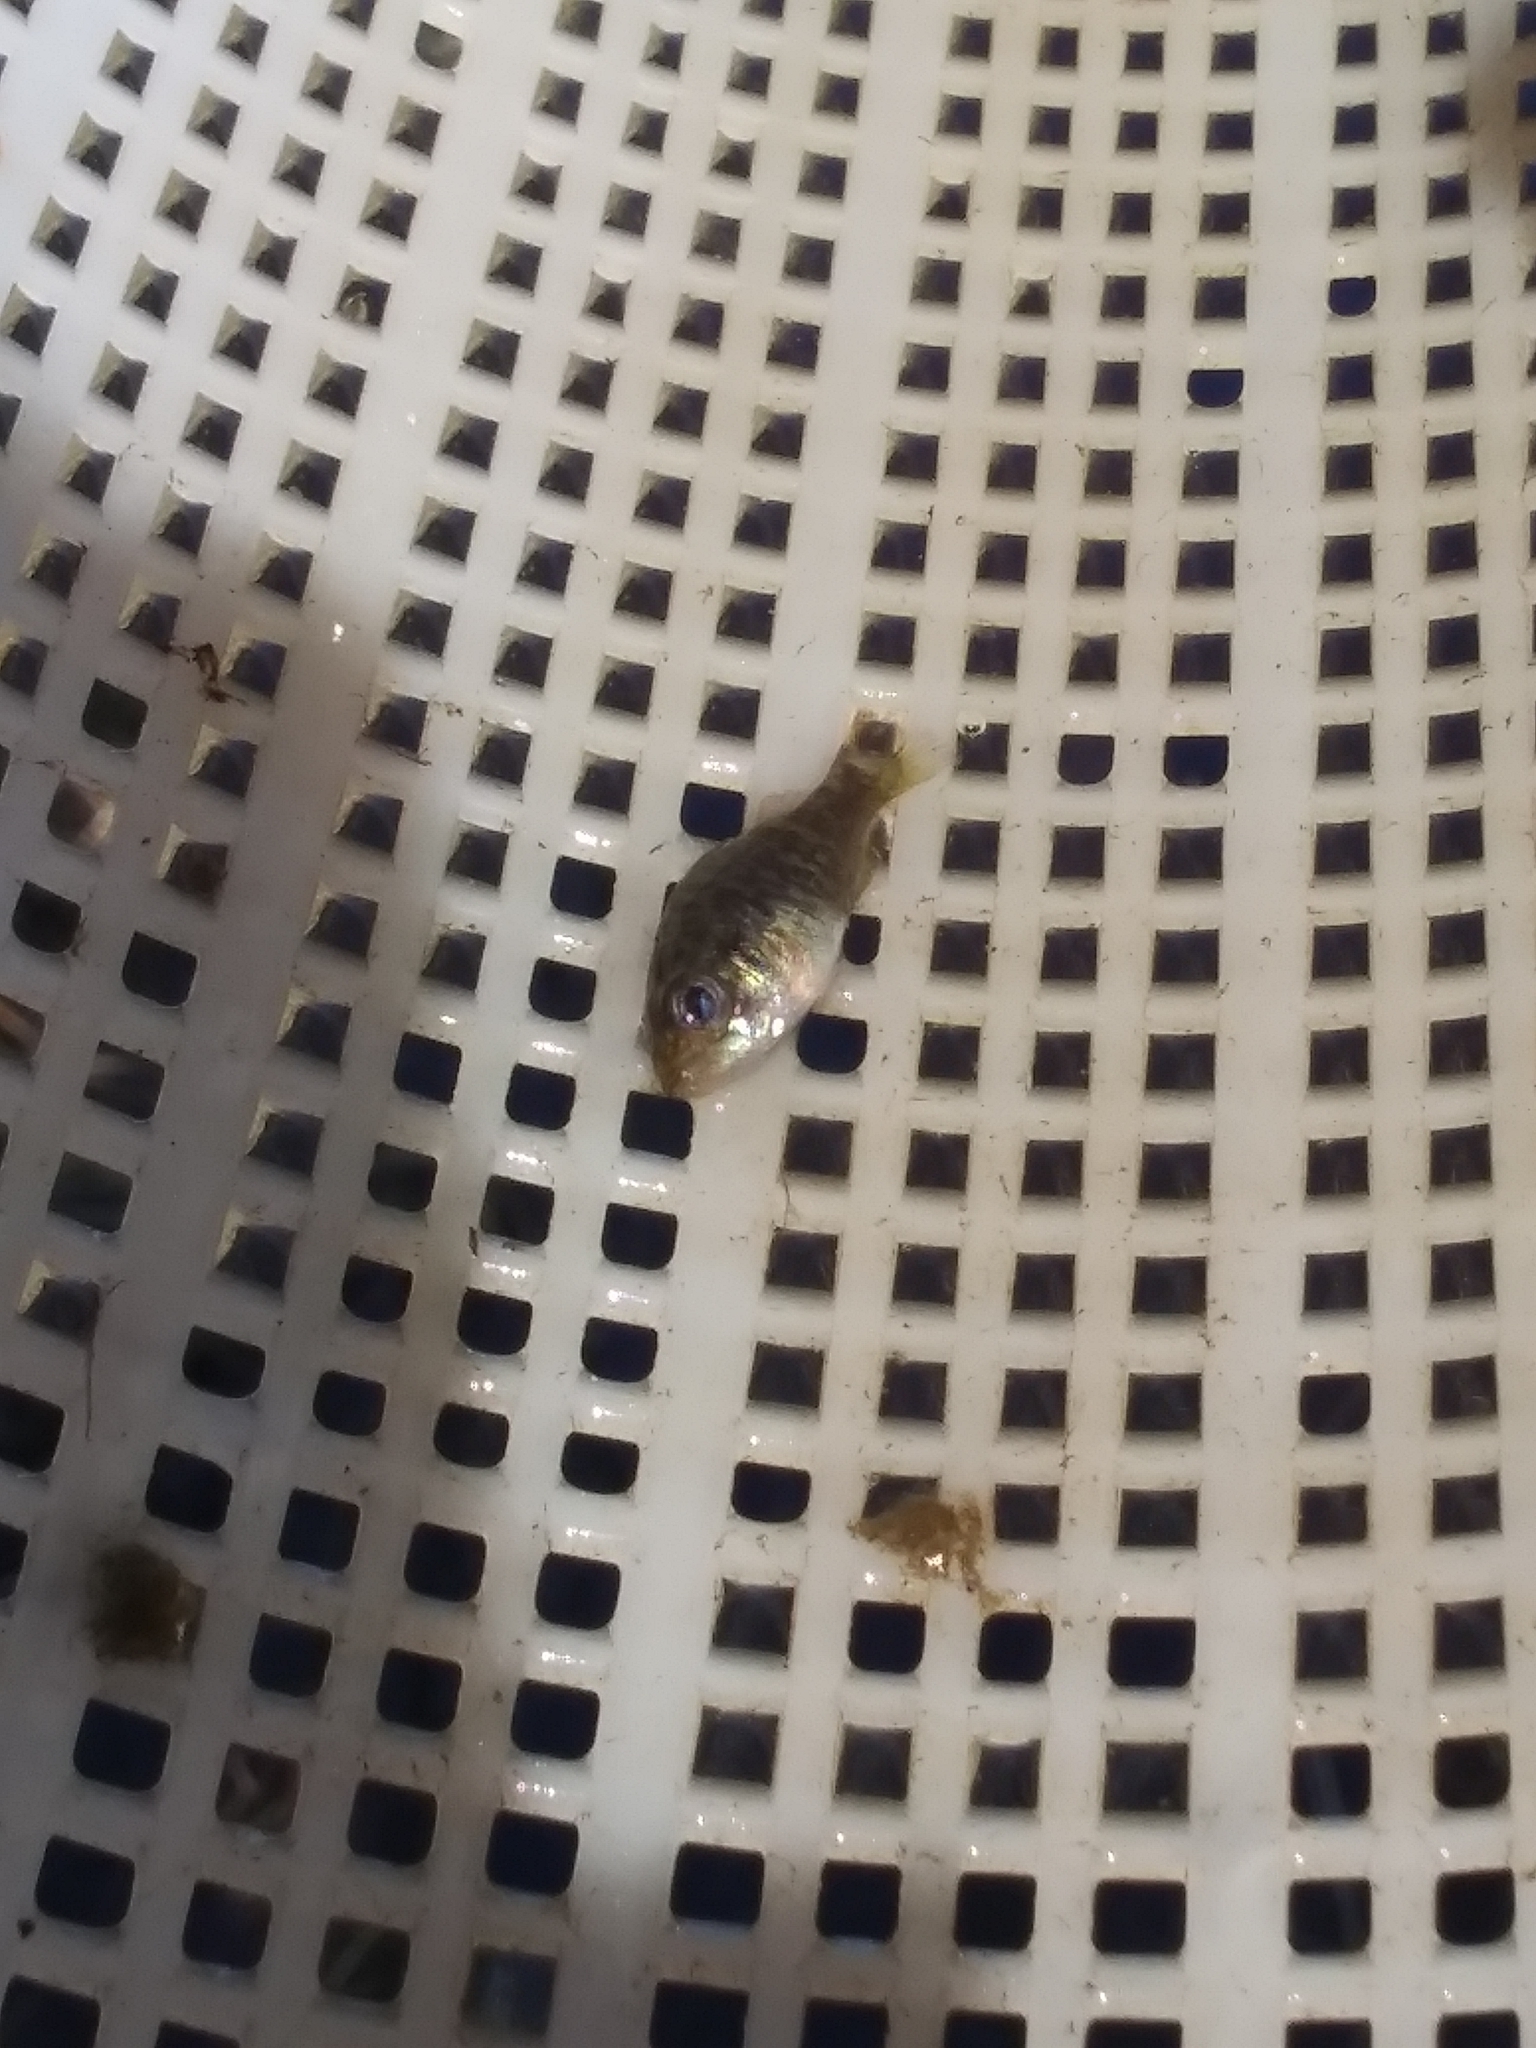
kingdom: Animalia
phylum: Chordata
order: Perciformes
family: Centrarchidae
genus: Lepomis
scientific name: Lepomis gulosus
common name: Warmouth
